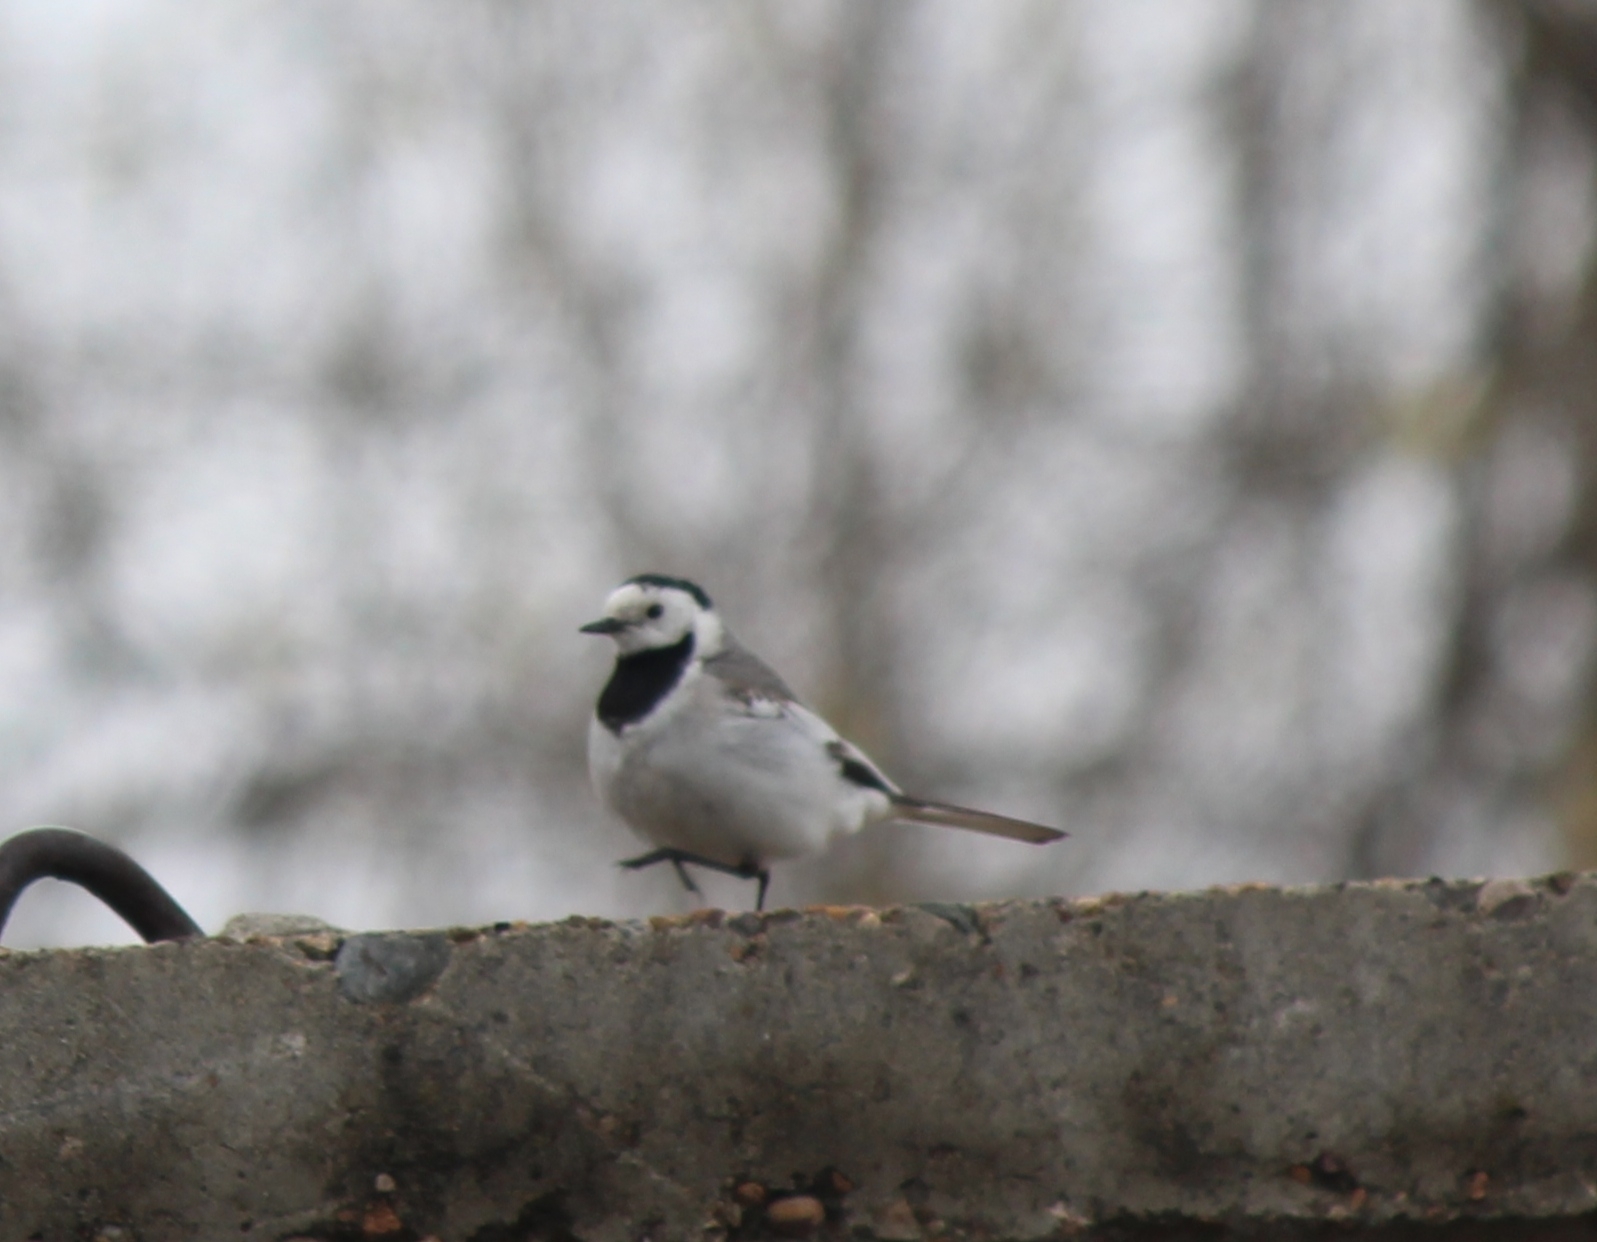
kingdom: Animalia
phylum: Chordata
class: Aves
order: Passeriformes
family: Motacillidae
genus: Motacilla
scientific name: Motacilla alba
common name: White wagtail
